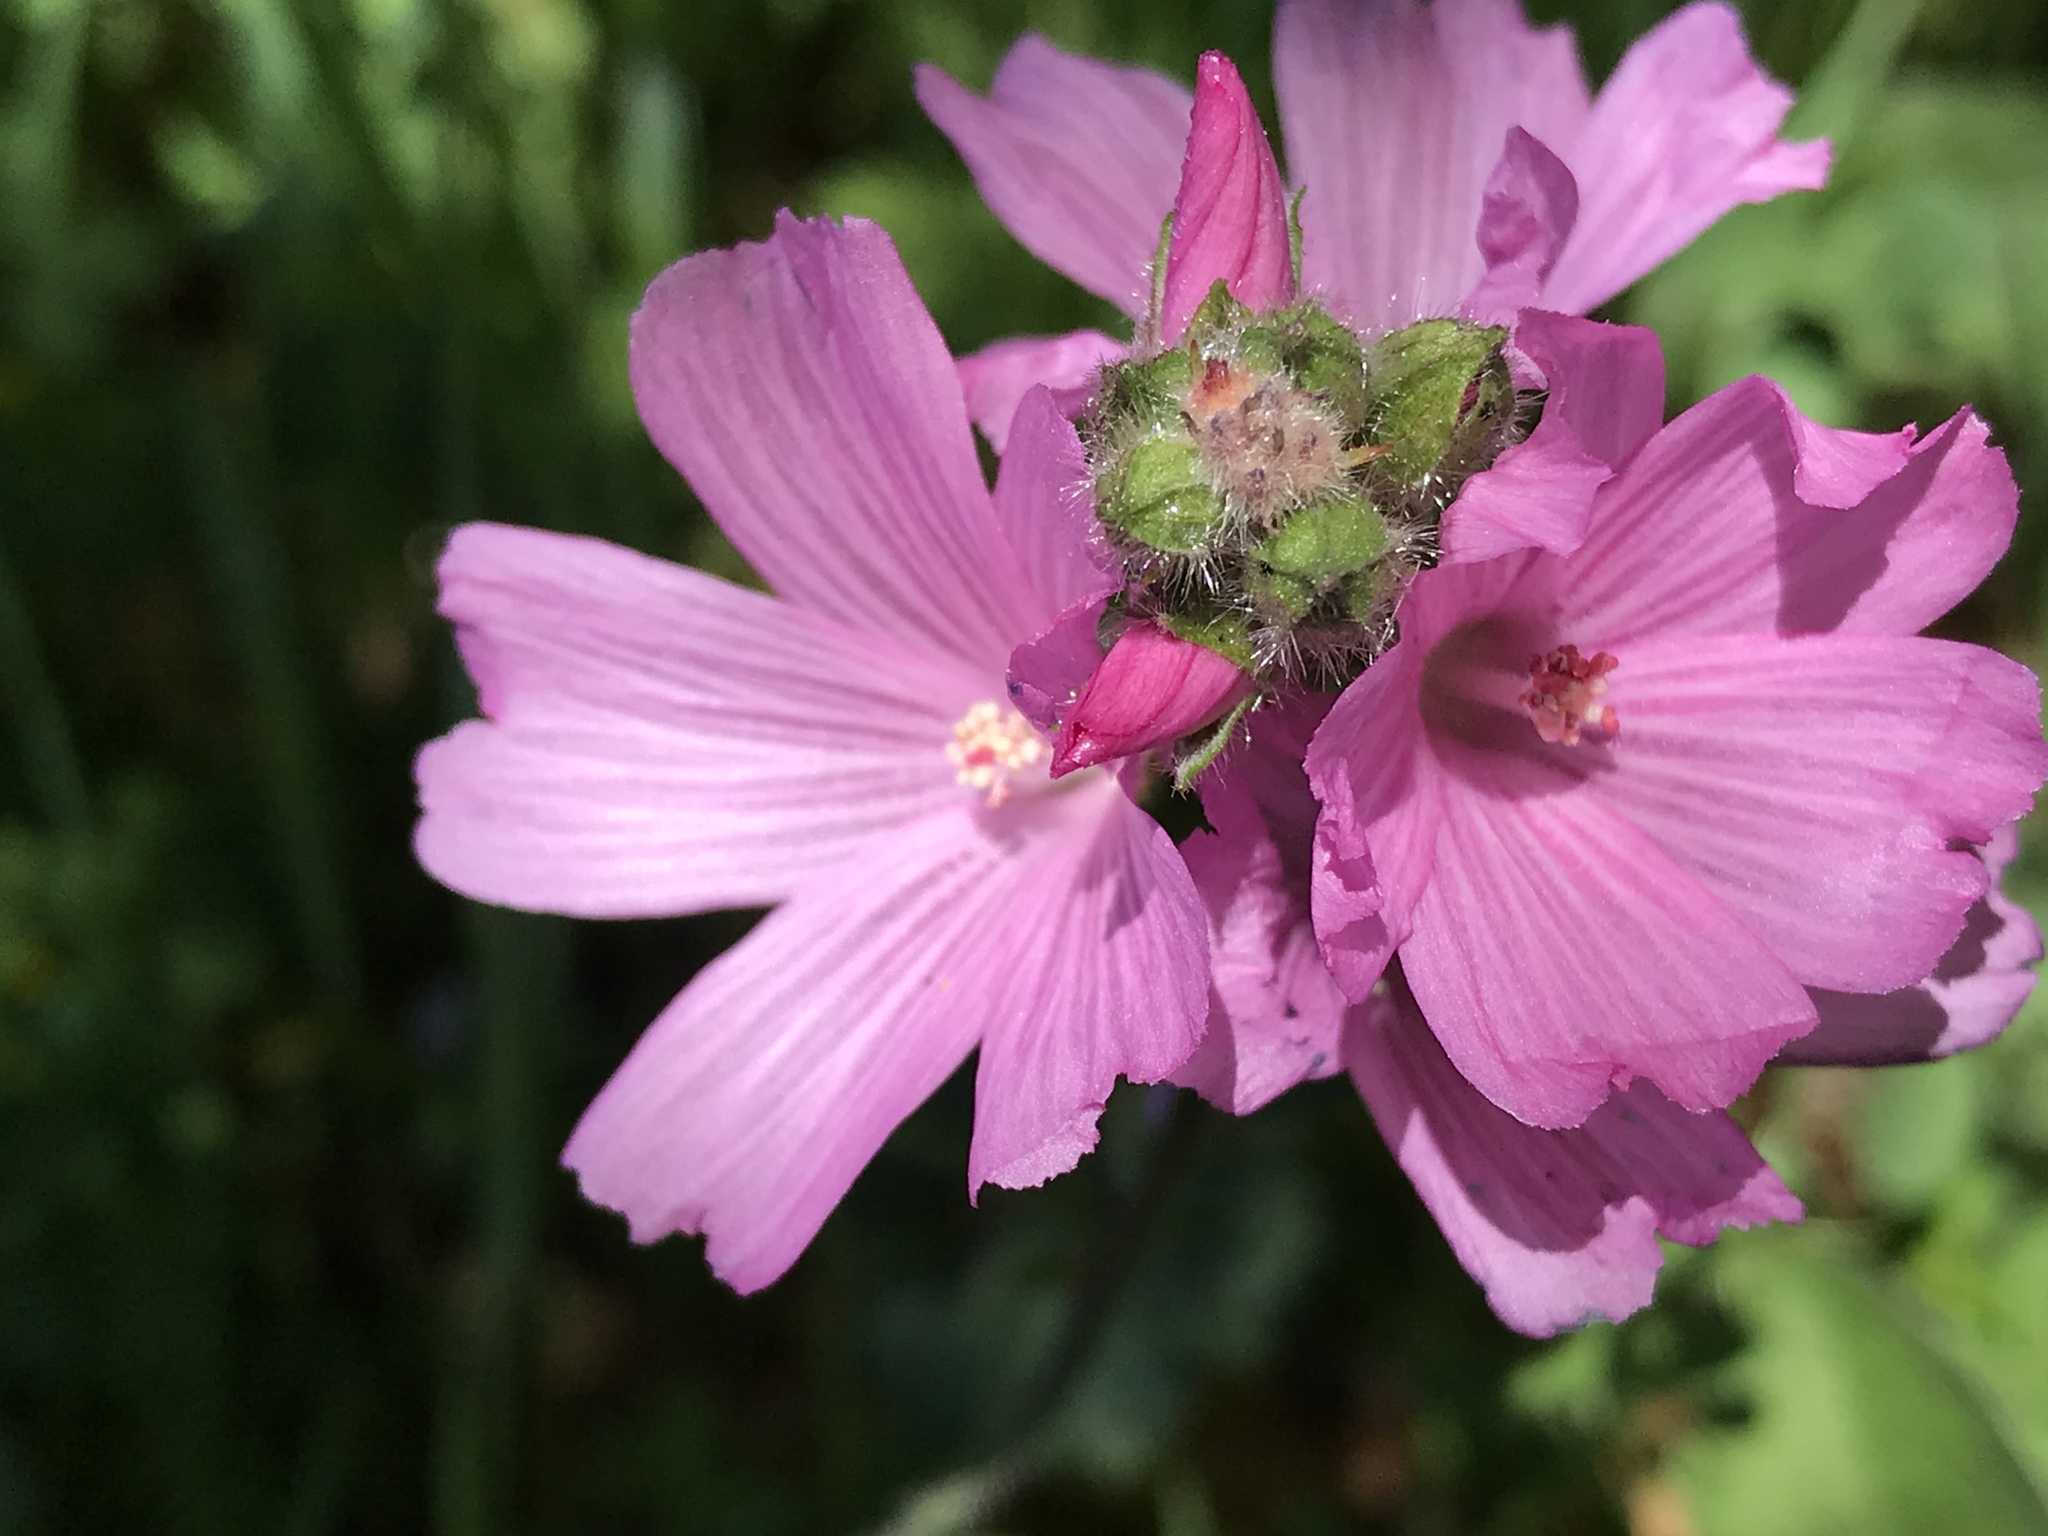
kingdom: Plantae
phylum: Tracheophyta
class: Magnoliopsida
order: Malvales
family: Malvaceae
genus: Sidalcea
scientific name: Sidalcea malviflora
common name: Greek mallow
